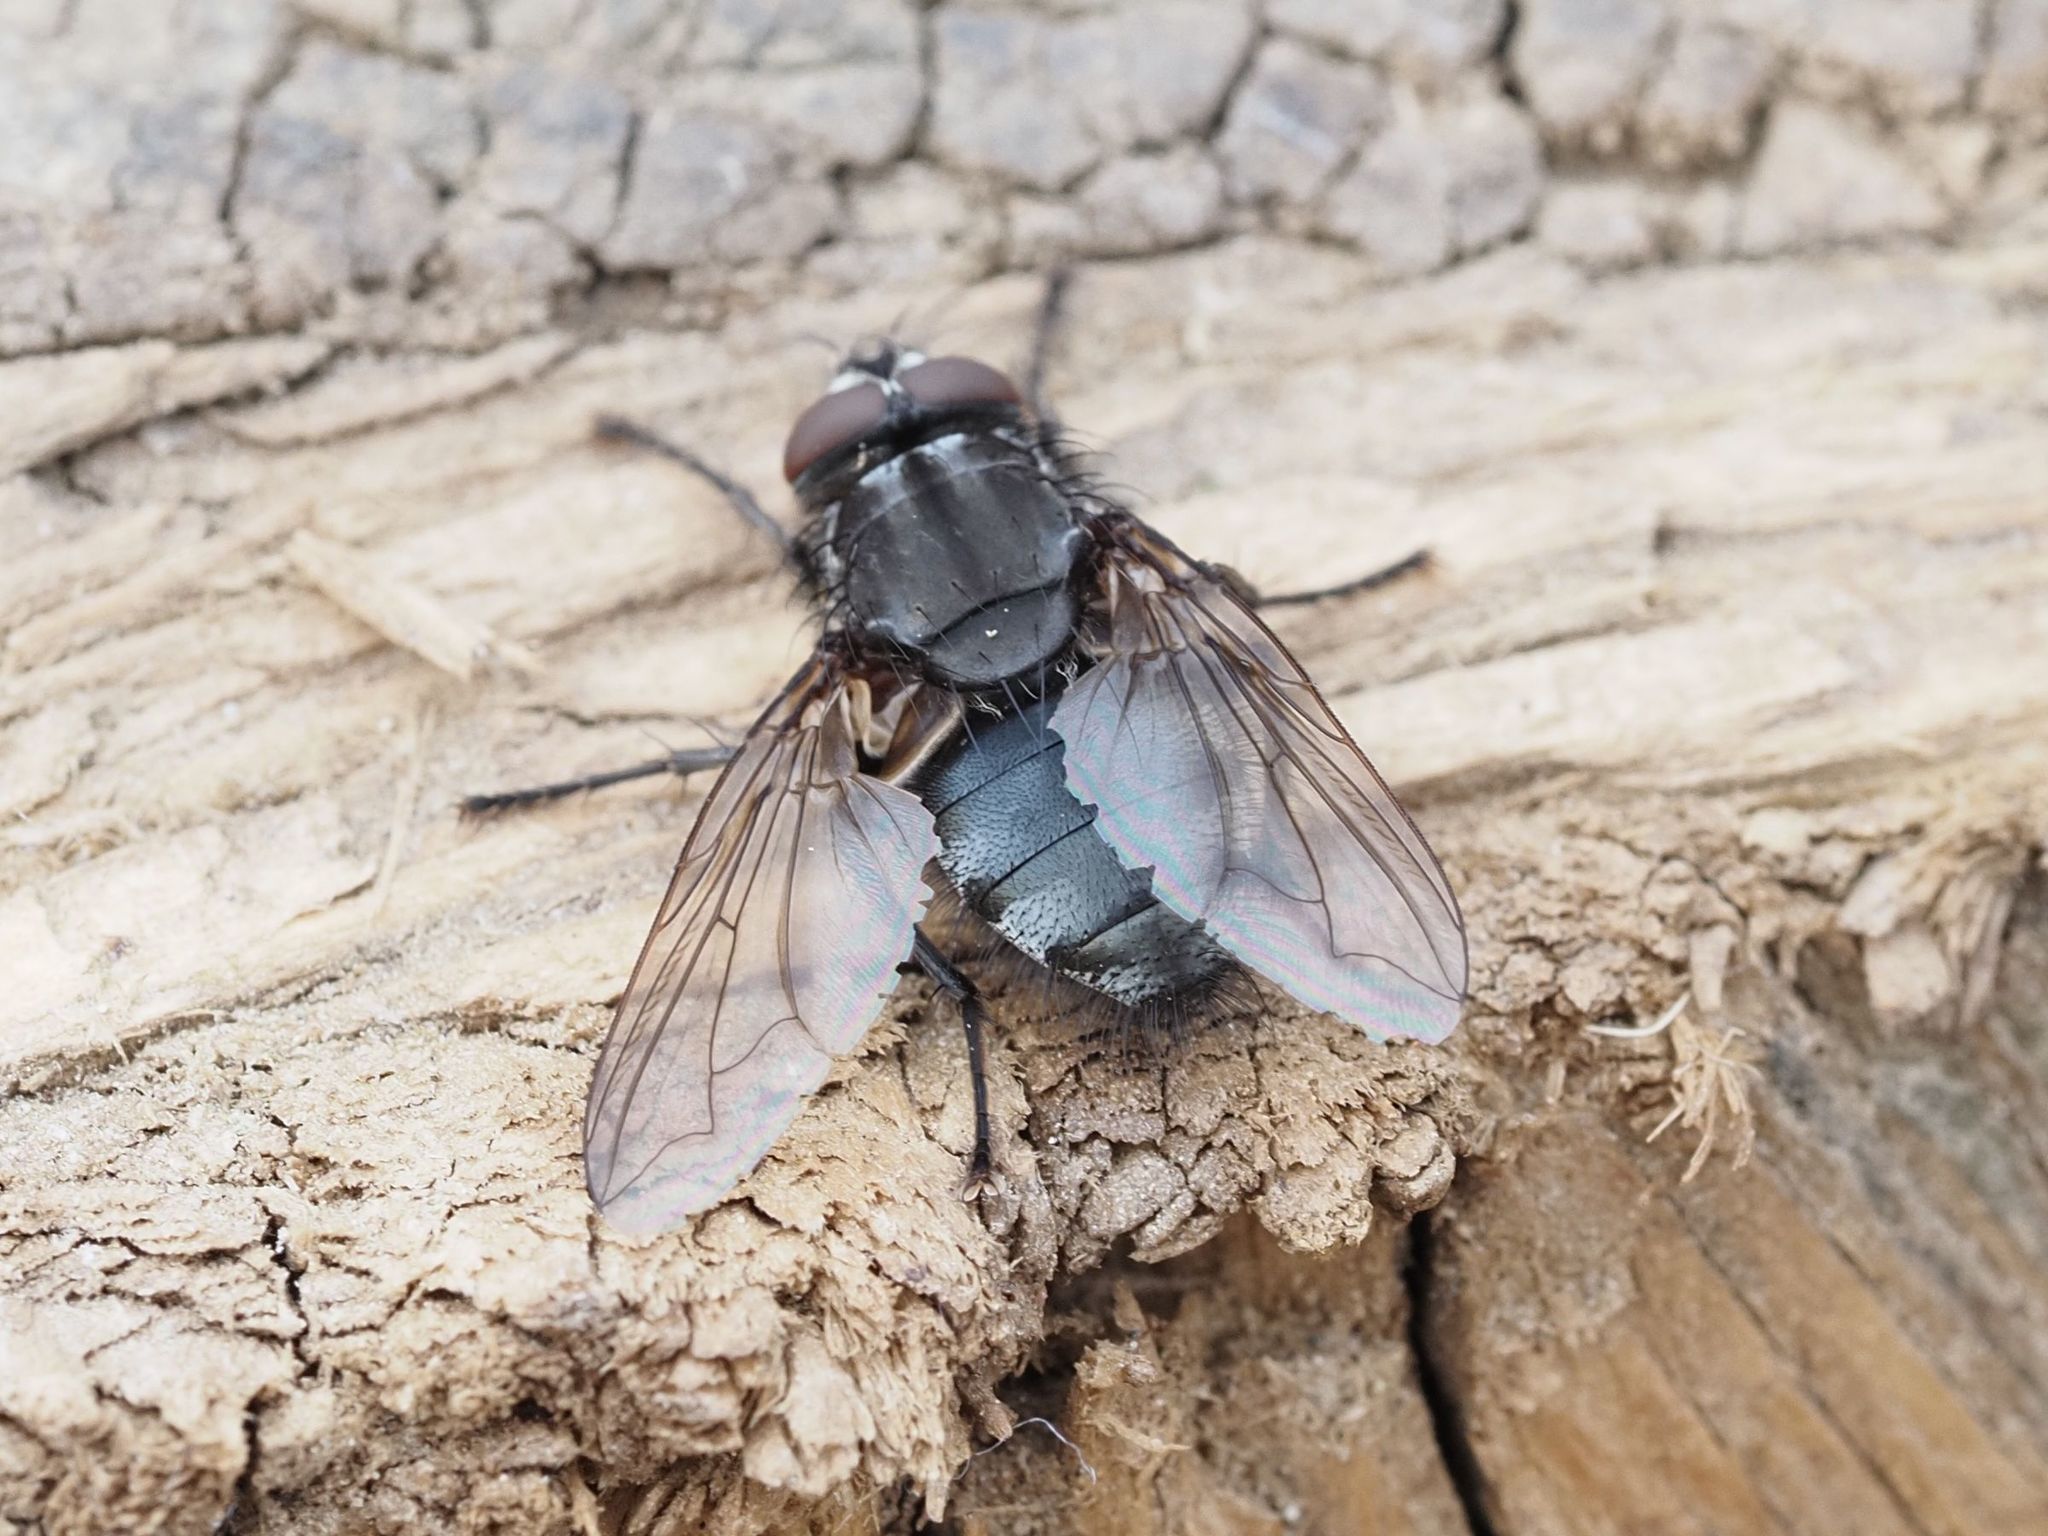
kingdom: Animalia
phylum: Arthropoda
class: Insecta
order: Diptera
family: Polleniidae
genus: Pollenia
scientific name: Pollenia vagabunda
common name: Vagabund cluster fly
